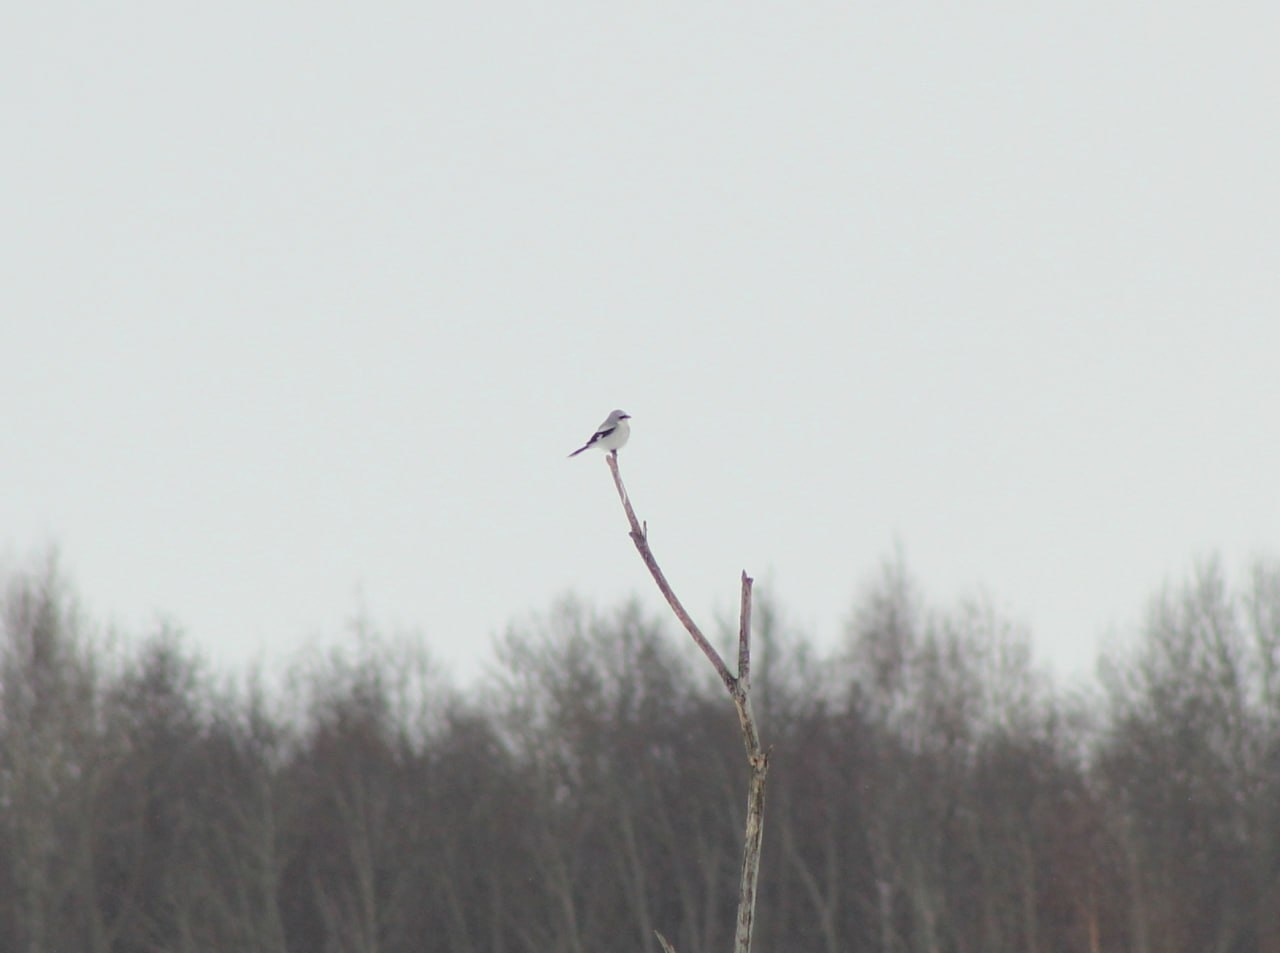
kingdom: Animalia
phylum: Chordata
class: Aves
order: Passeriformes
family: Laniidae
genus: Lanius
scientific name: Lanius excubitor
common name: Great grey shrike
